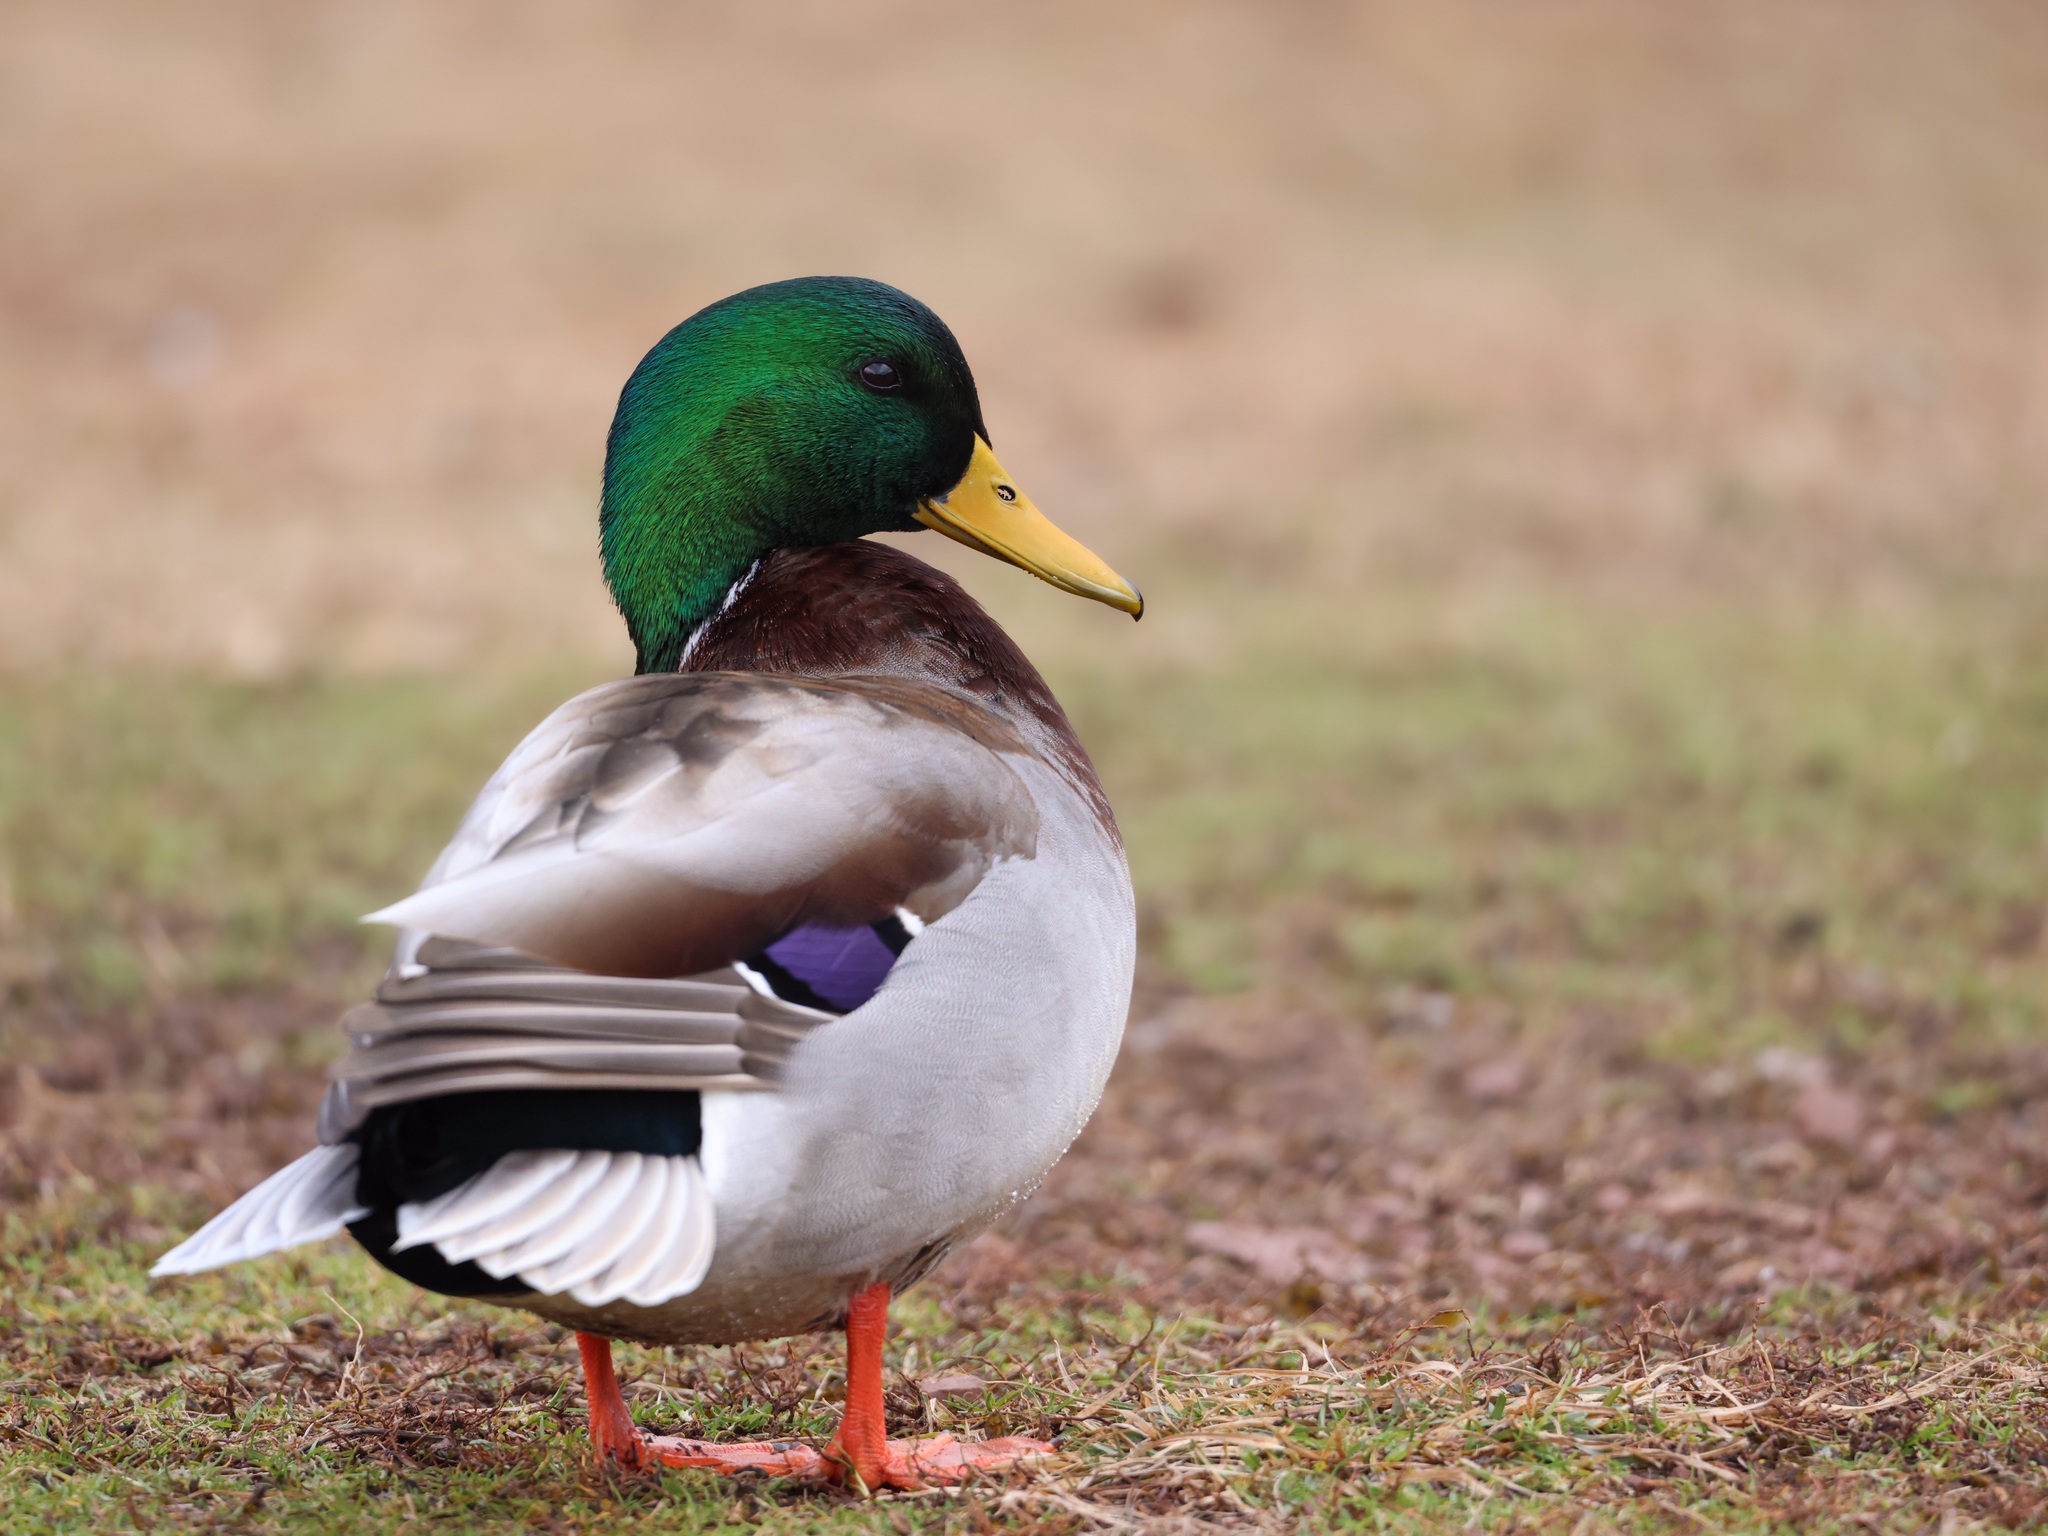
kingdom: Animalia
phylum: Chordata
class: Aves
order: Anseriformes
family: Anatidae
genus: Anas
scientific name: Anas platyrhynchos
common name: Mallard
